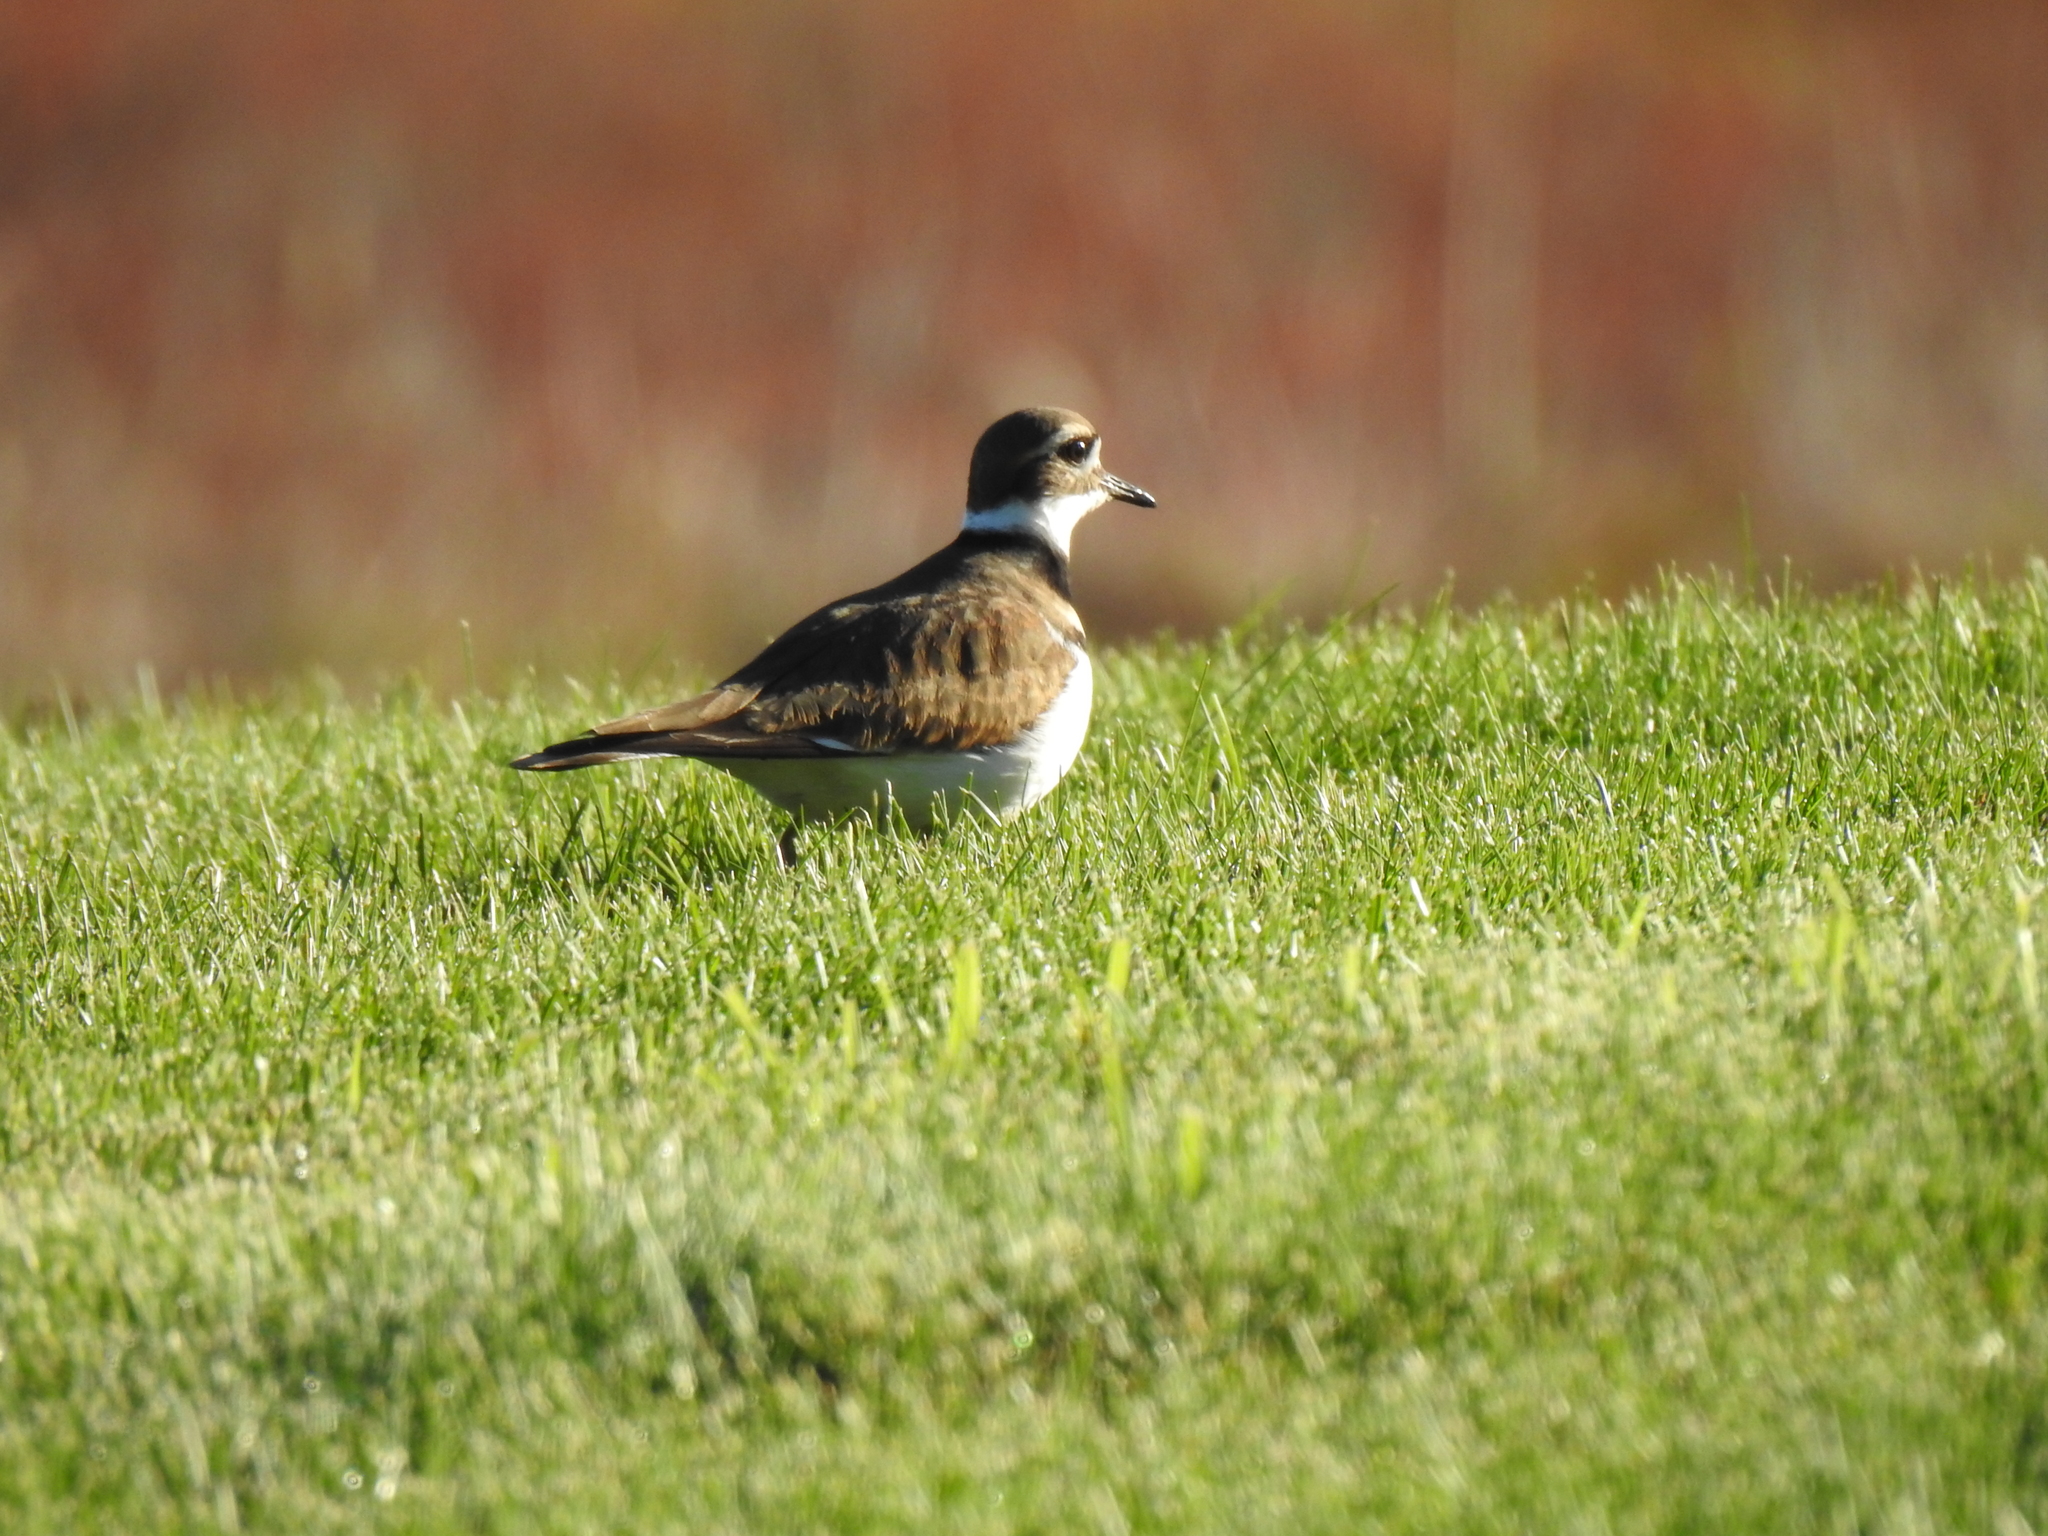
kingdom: Animalia
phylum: Chordata
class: Aves
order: Charadriiformes
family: Charadriidae
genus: Charadrius
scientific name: Charadrius vociferus
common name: Killdeer
